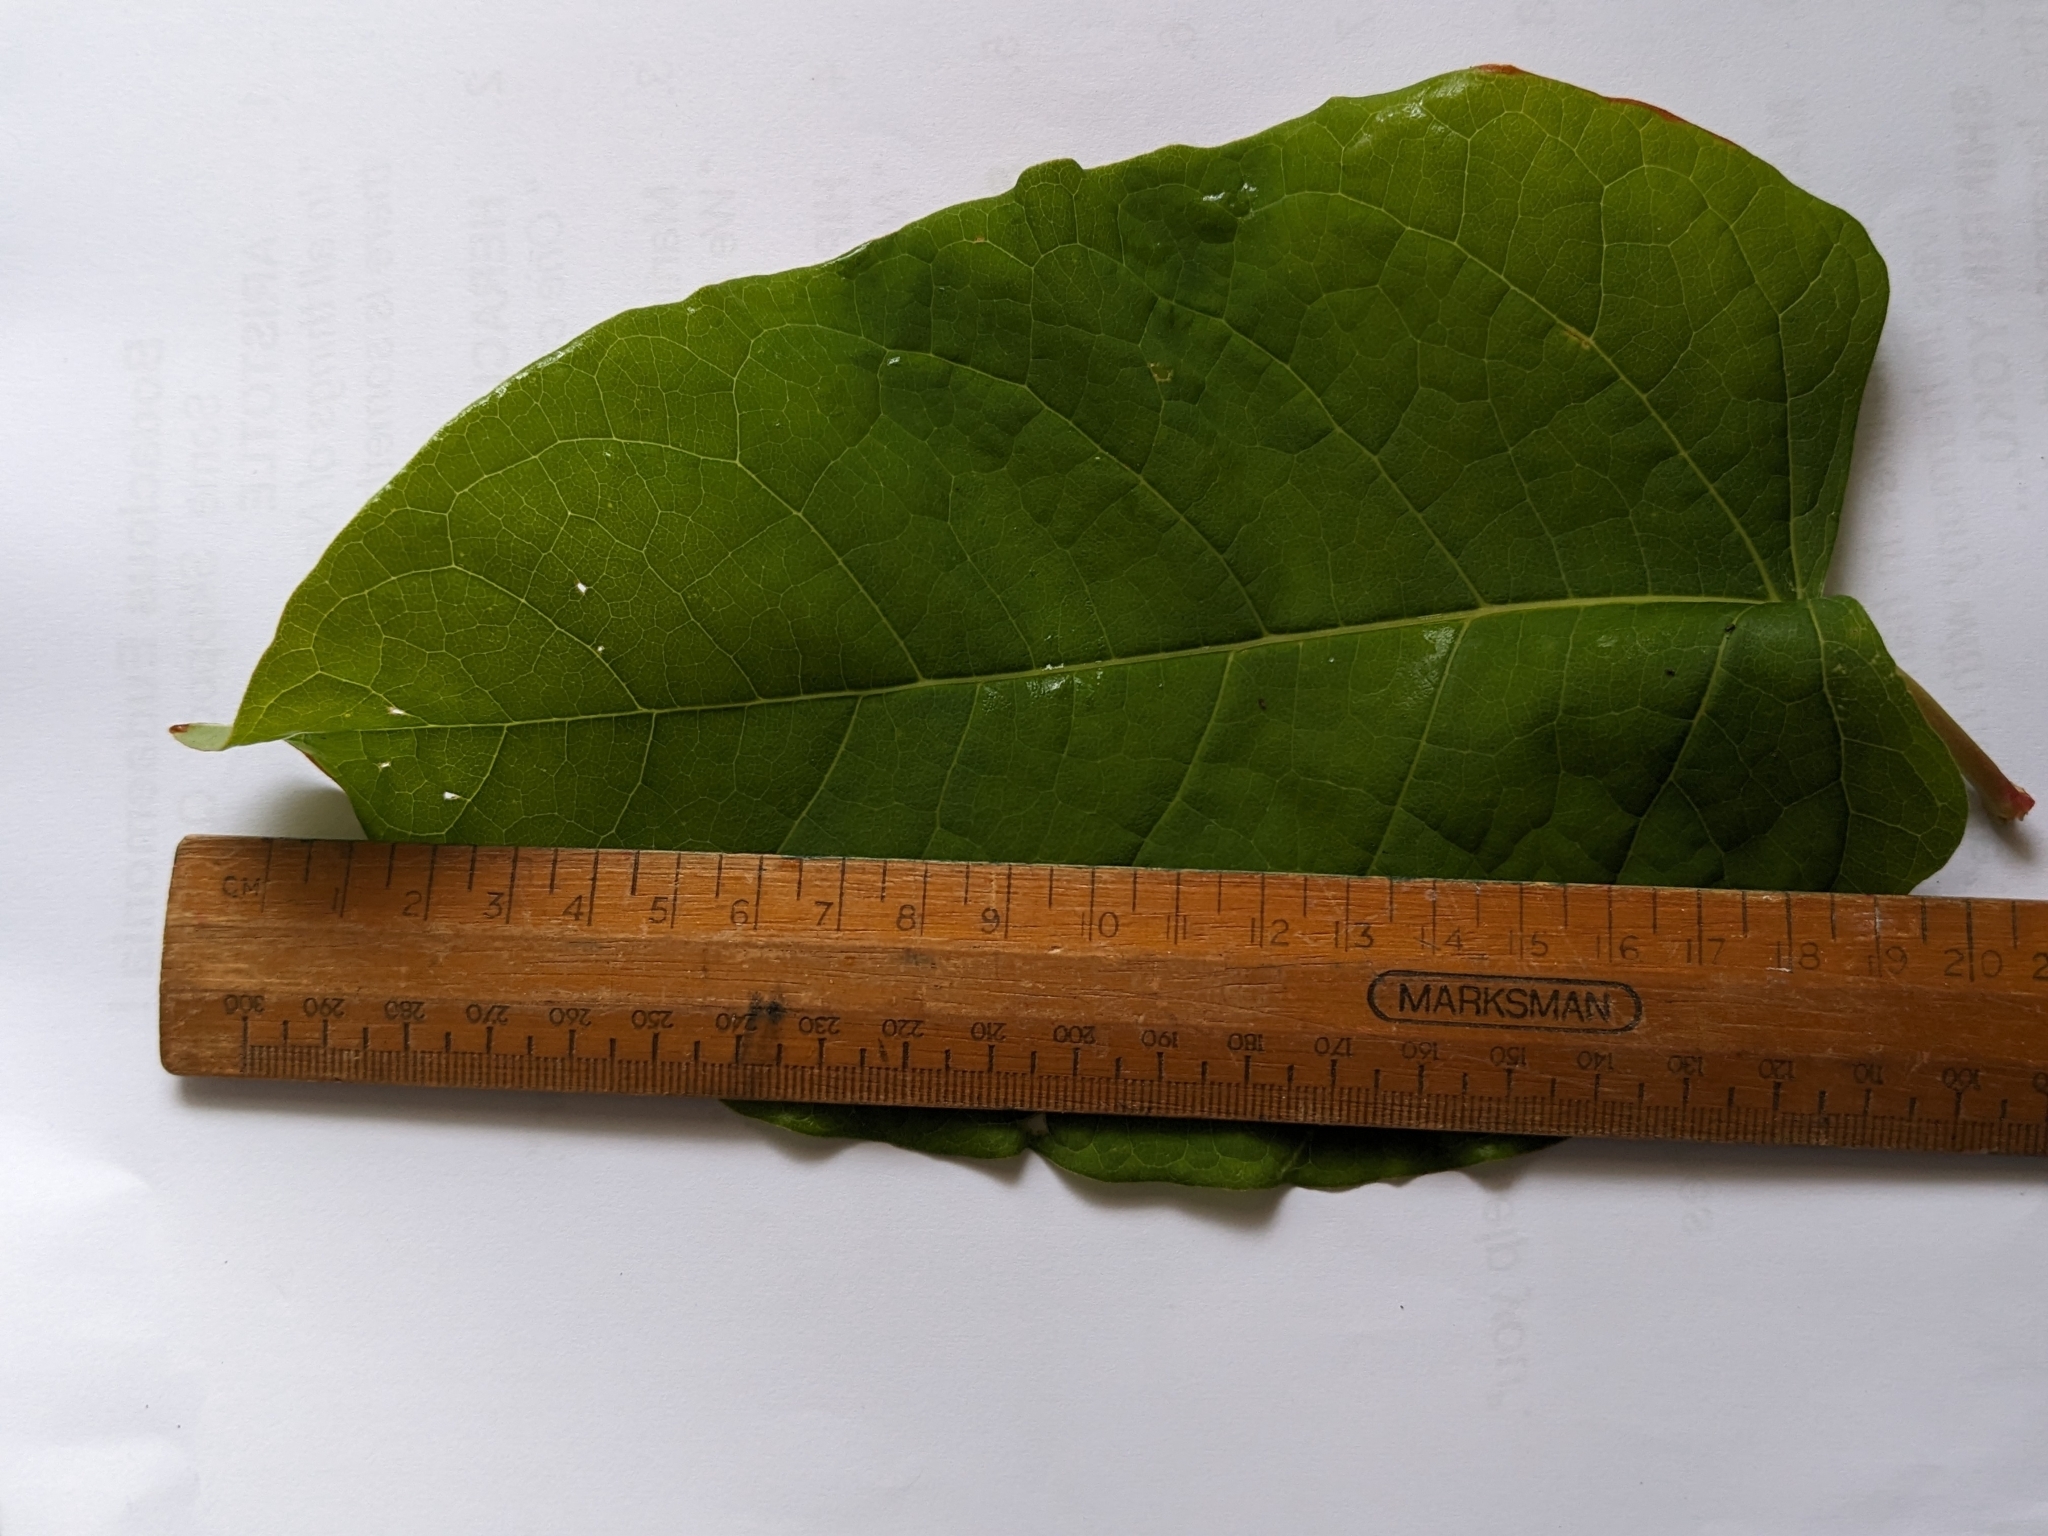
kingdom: Plantae
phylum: Tracheophyta
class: Magnoliopsida
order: Caryophyllales
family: Polygonaceae
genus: Reynoutria
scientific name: Reynoutria bohemica
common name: Bohemian knotweed
